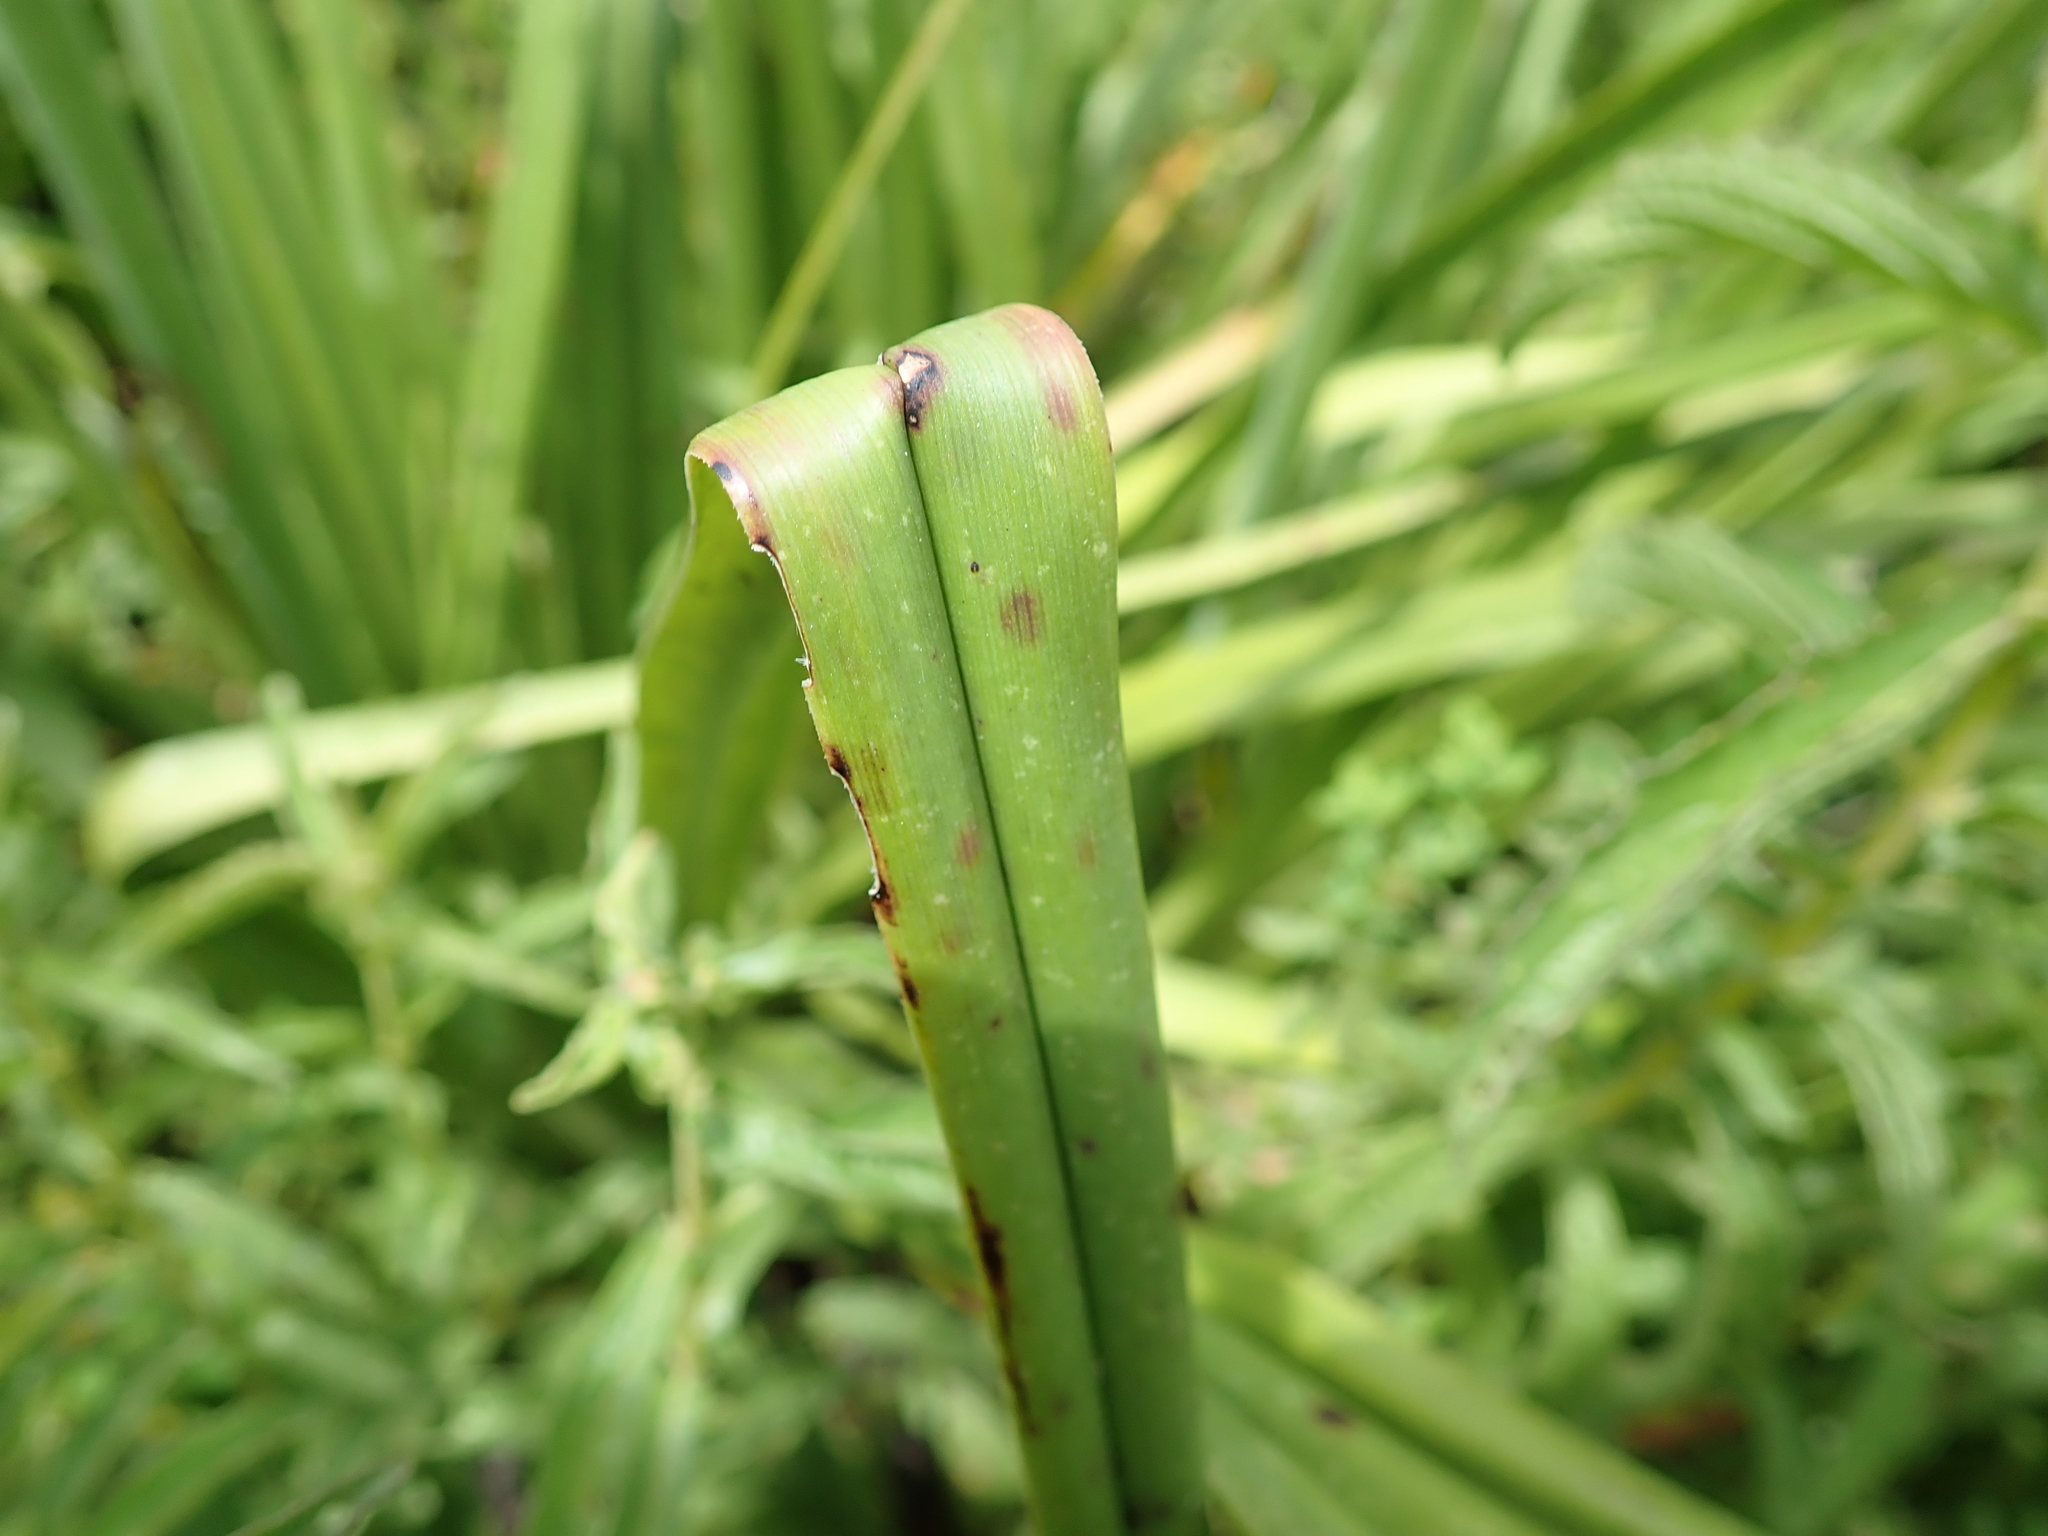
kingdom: Plantae
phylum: Tracheophyta
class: Liliopsida
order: Asparagales
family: Asphodelaceae
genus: Kniphofia
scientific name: Kniphofia linearifolia
